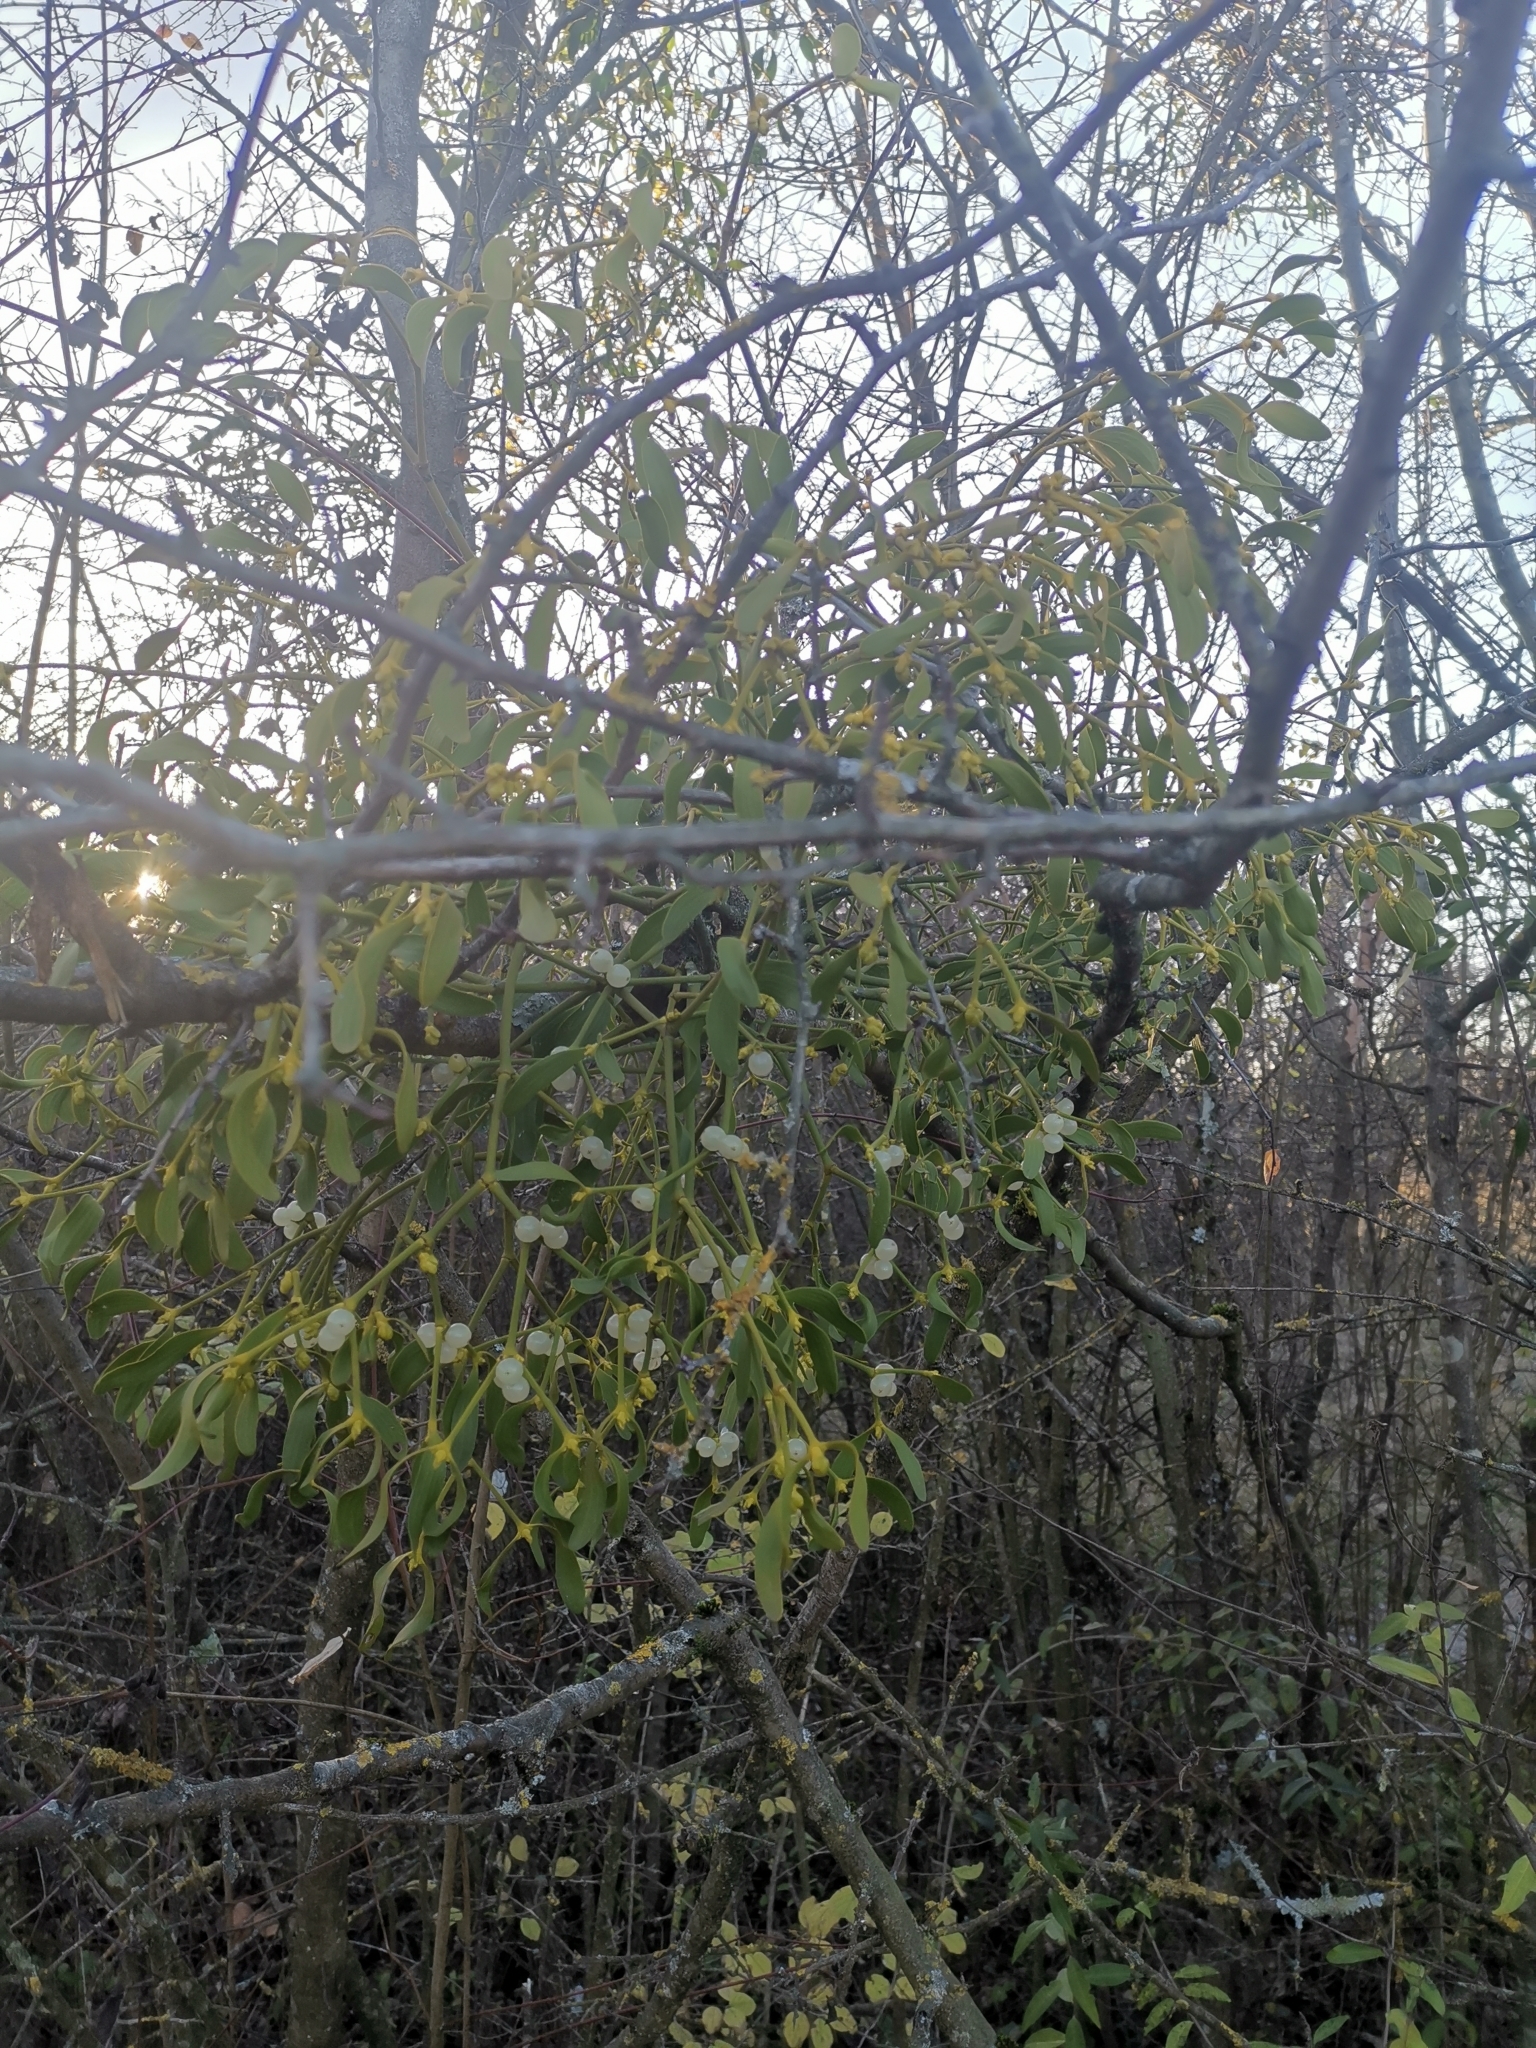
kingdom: Plantae
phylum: Tracheophyta
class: Magnoliopsida
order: Santalales
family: Viscaceae
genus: Viscum
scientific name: Viscum album
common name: Mistletoe
